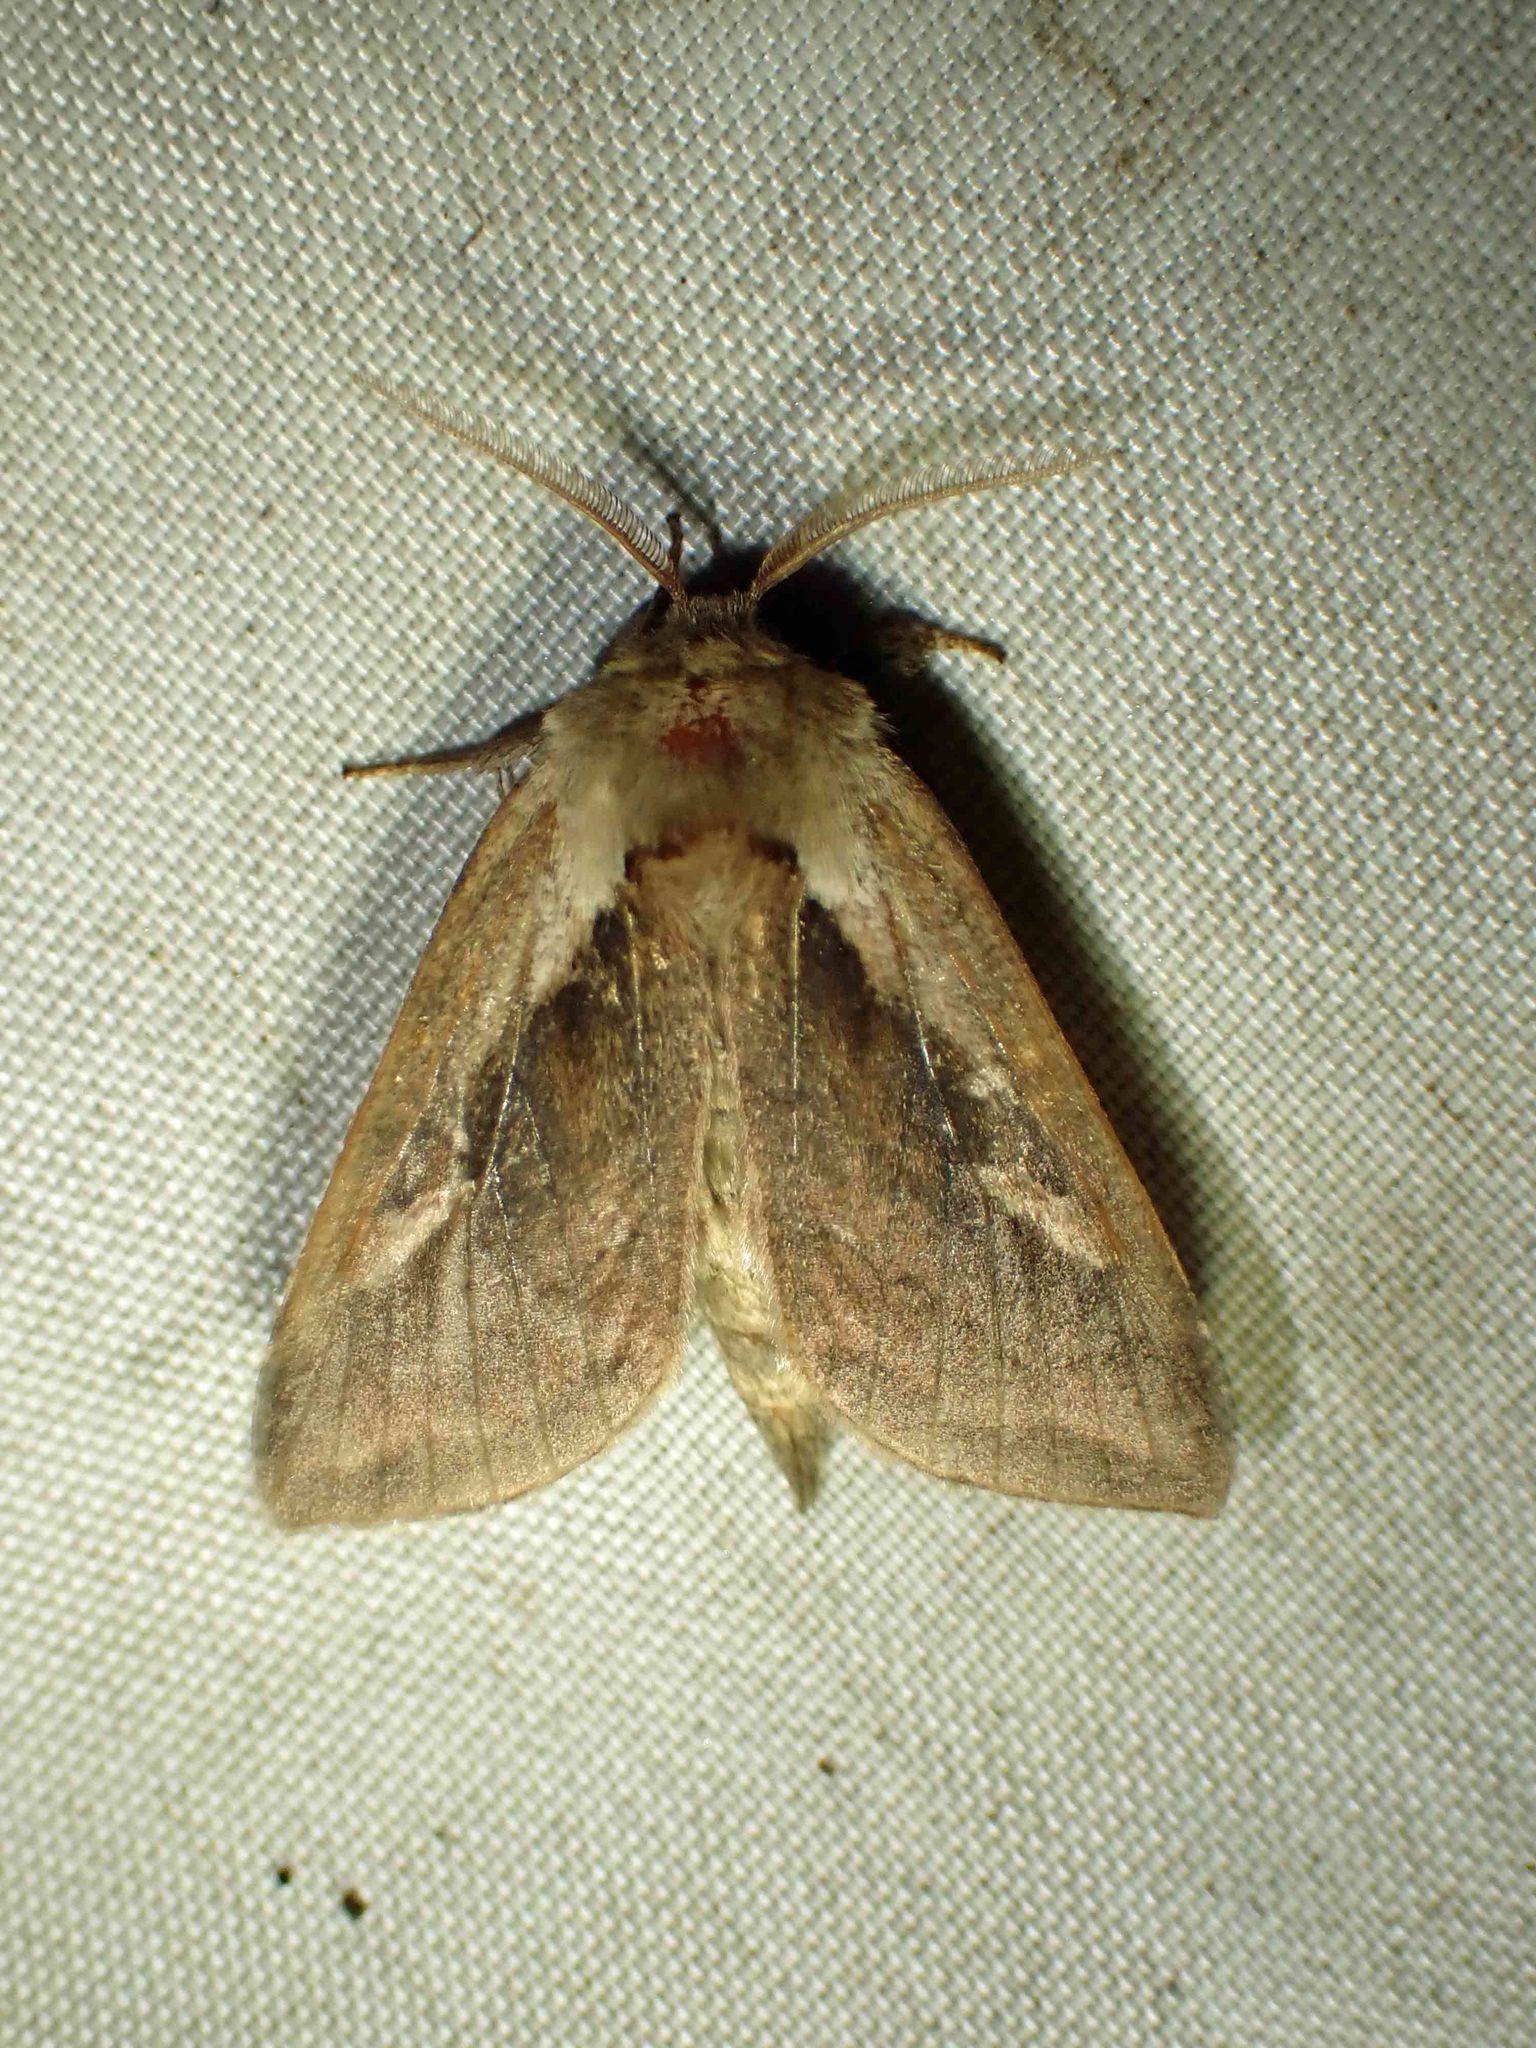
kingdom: Animalia
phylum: Arthropoda
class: Insecta
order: Lepidoptera
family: Noctuidae
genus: Bellura
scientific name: Bellura obliqua
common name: Cattail borer moth
